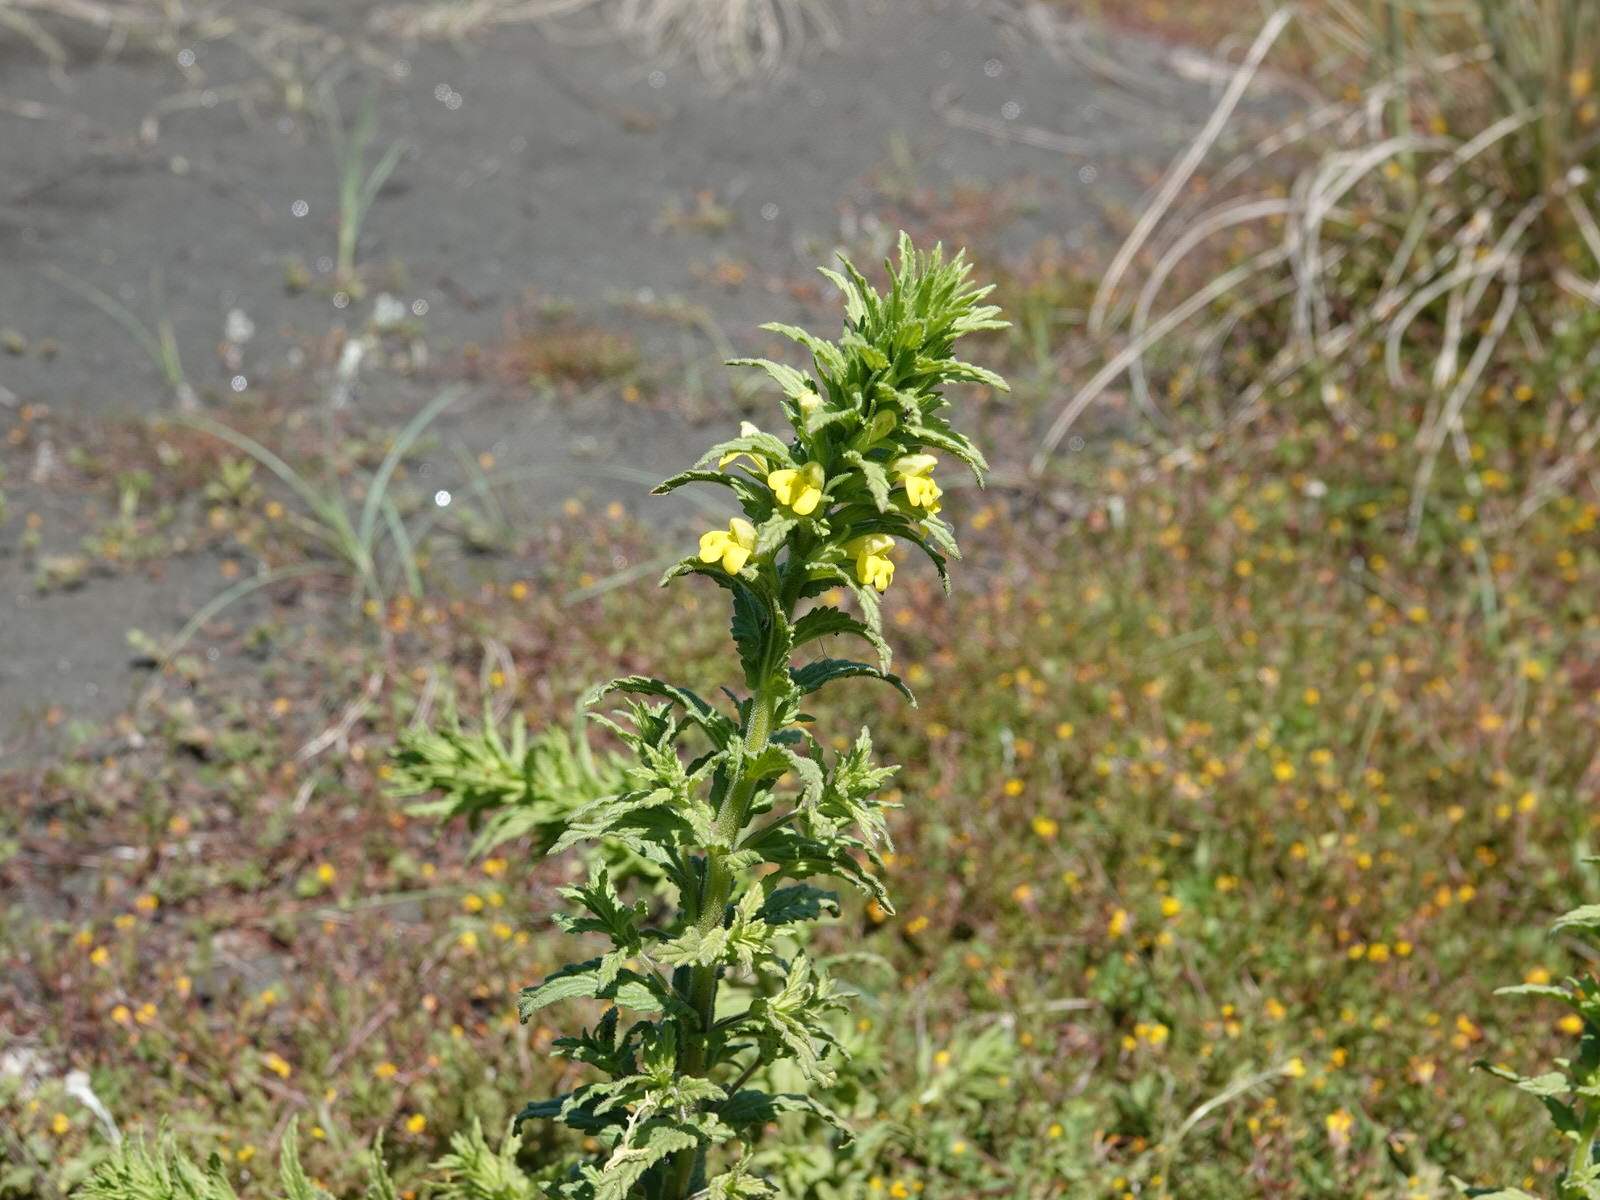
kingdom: Plantae
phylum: Tracheophyta
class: Magnoliopsida
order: Lamiales
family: Orobanchaceae
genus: Bellardia
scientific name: Bellardia viscosa
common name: Sticky parentucellia
